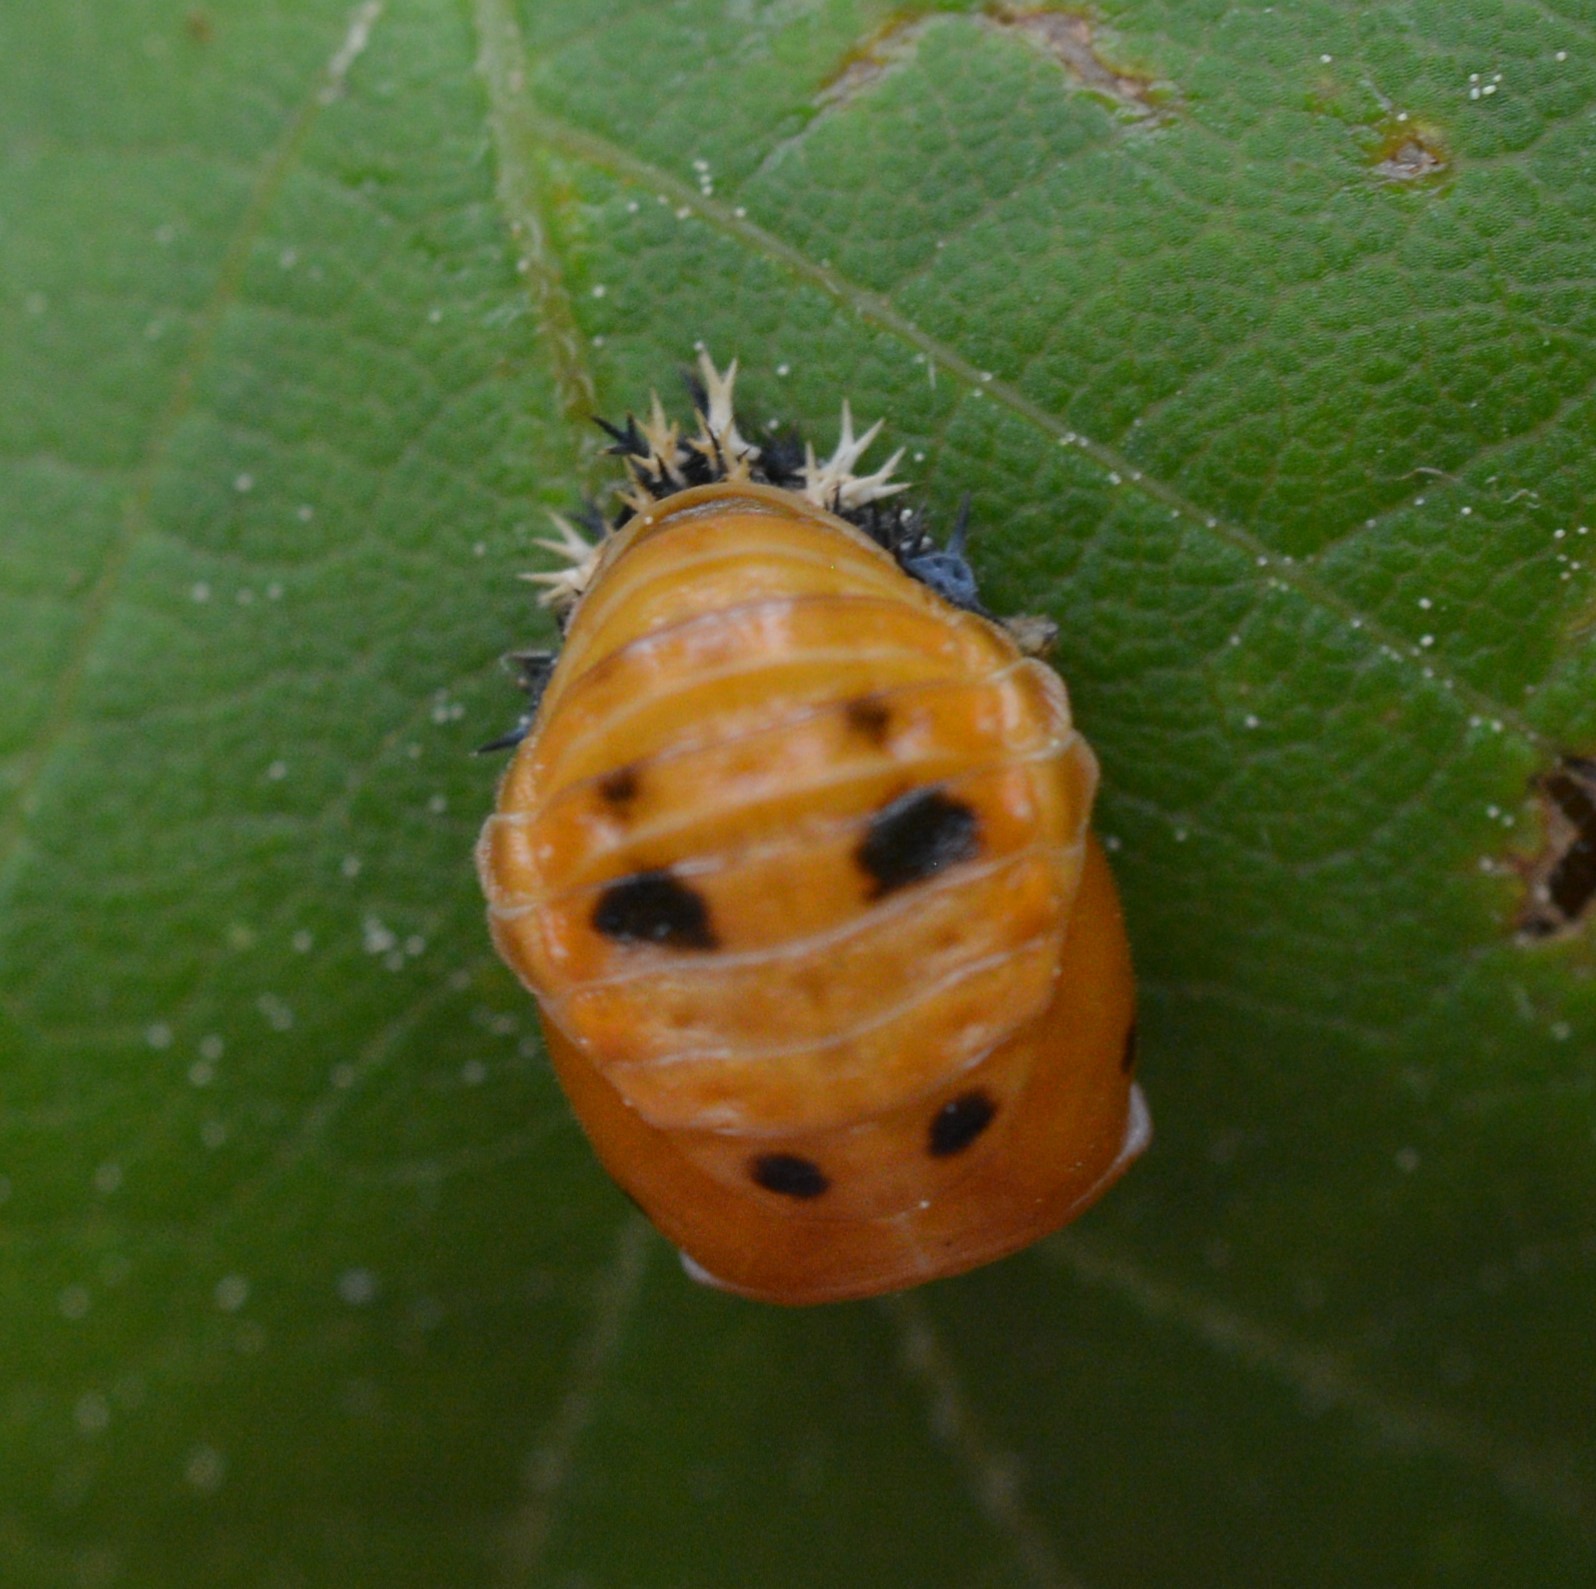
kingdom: Animalia
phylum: Arthropoda
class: Insecta
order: Coleoptera
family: Coccinellidae
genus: Harmonia
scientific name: Harmonia axyridis
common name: Harlequin ladybird
